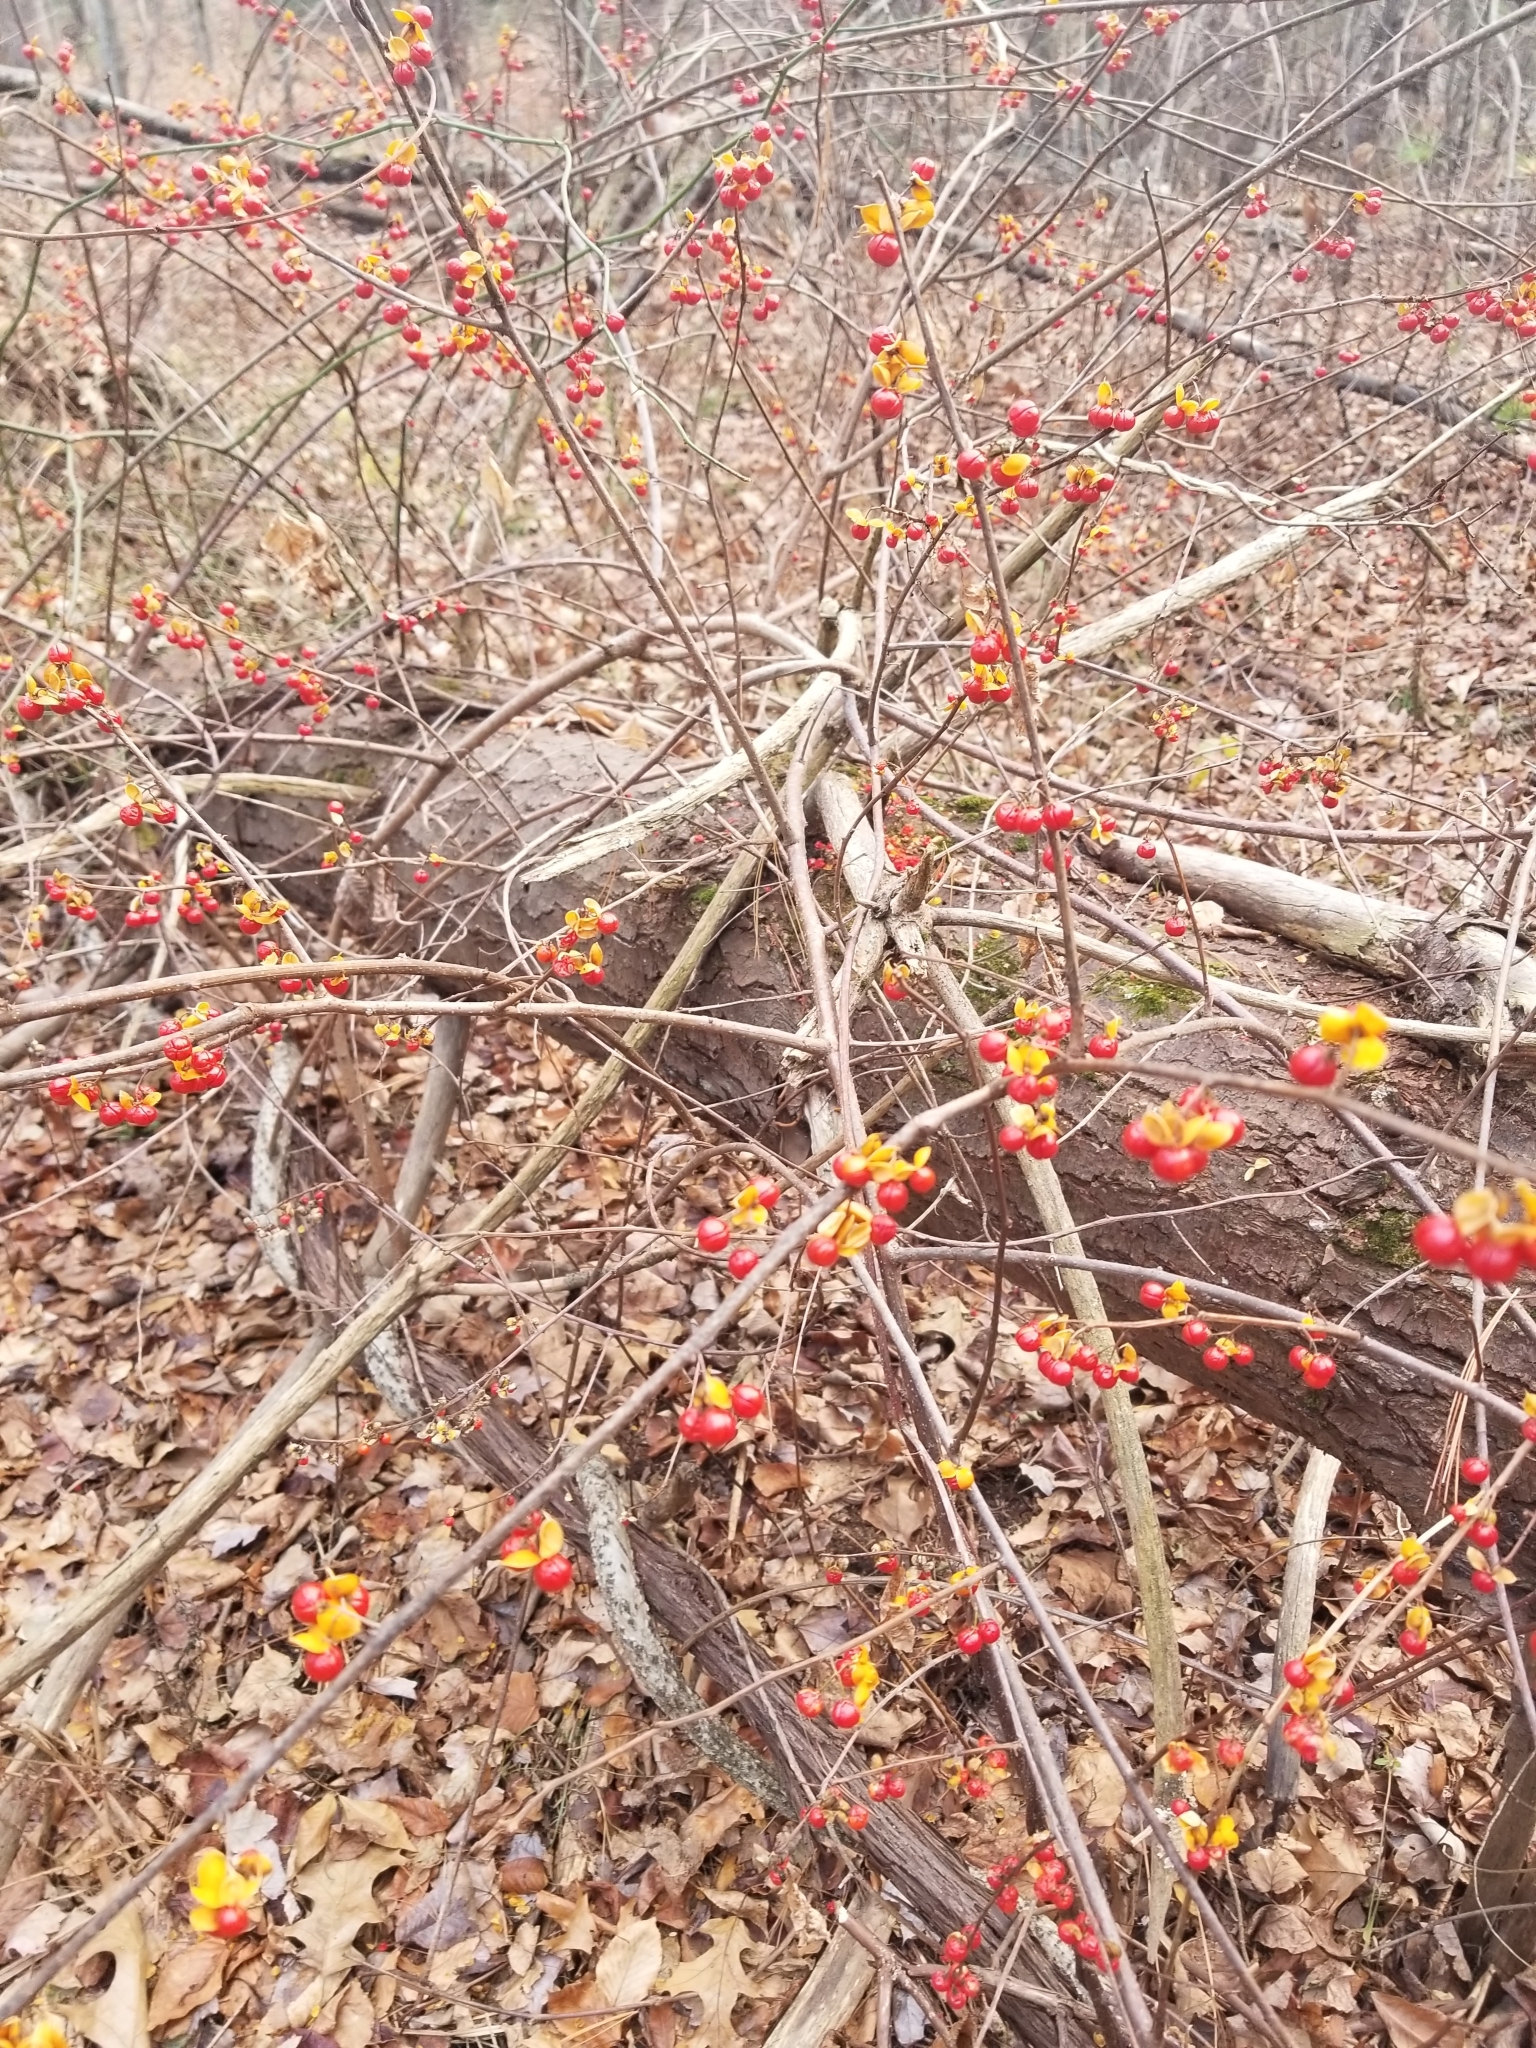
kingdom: Plantae
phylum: Tracheophyta
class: Magnoliopsida
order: Celastrales
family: Celastraceae
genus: Celastrus
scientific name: Celastrus orbiculatus
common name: Oriental bittersweet
